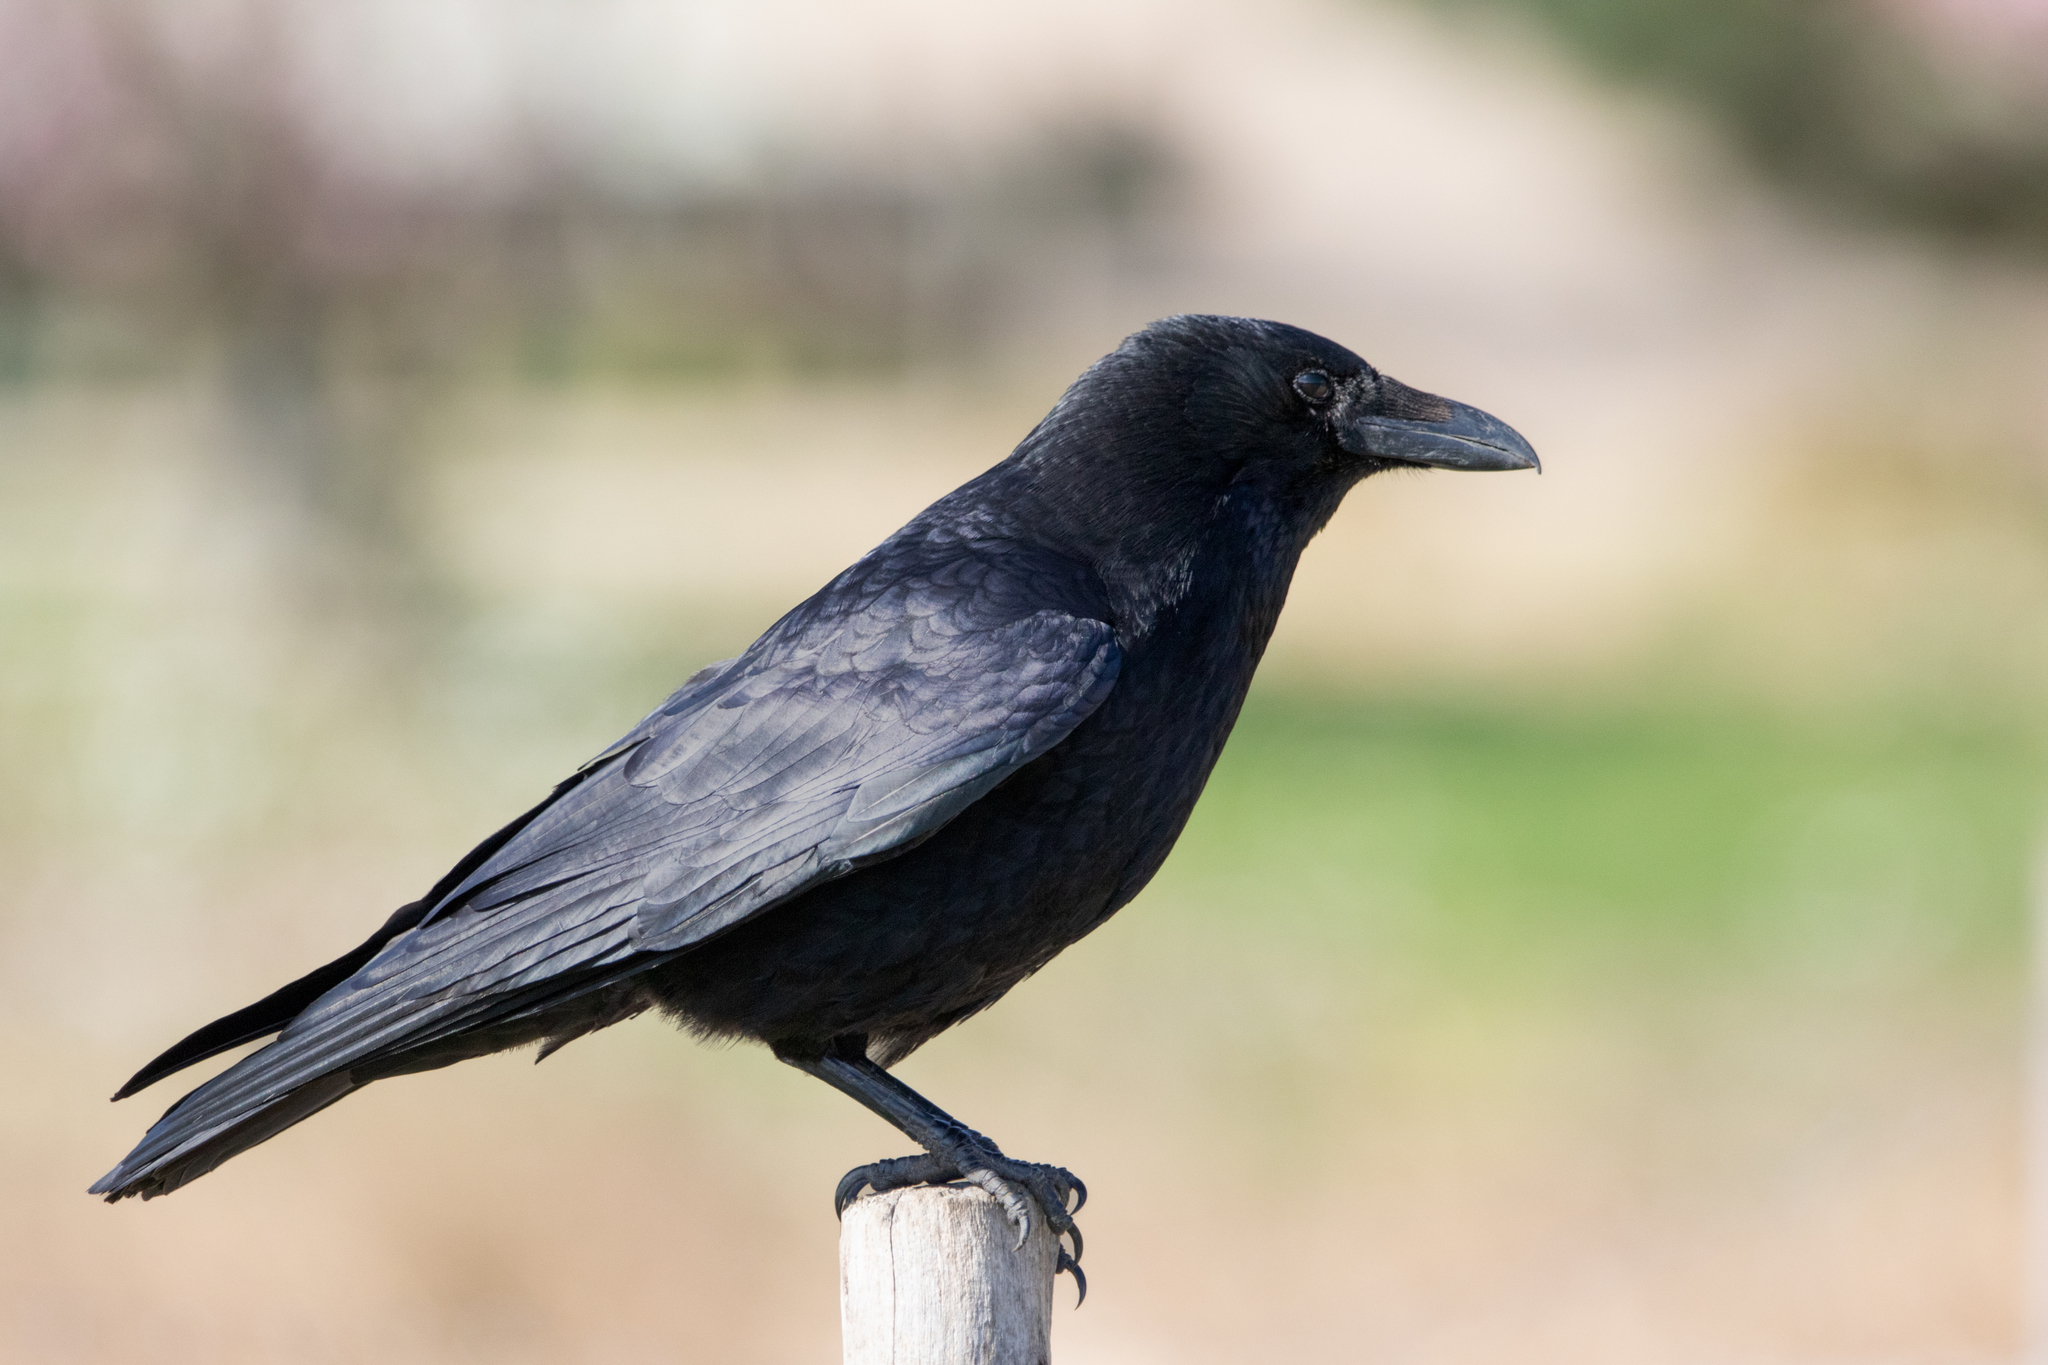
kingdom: Animalia
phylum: Chordata
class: Aves
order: Passeriformes
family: Corvidae
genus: Corvus
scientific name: Corvus corone
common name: Carrion crow
